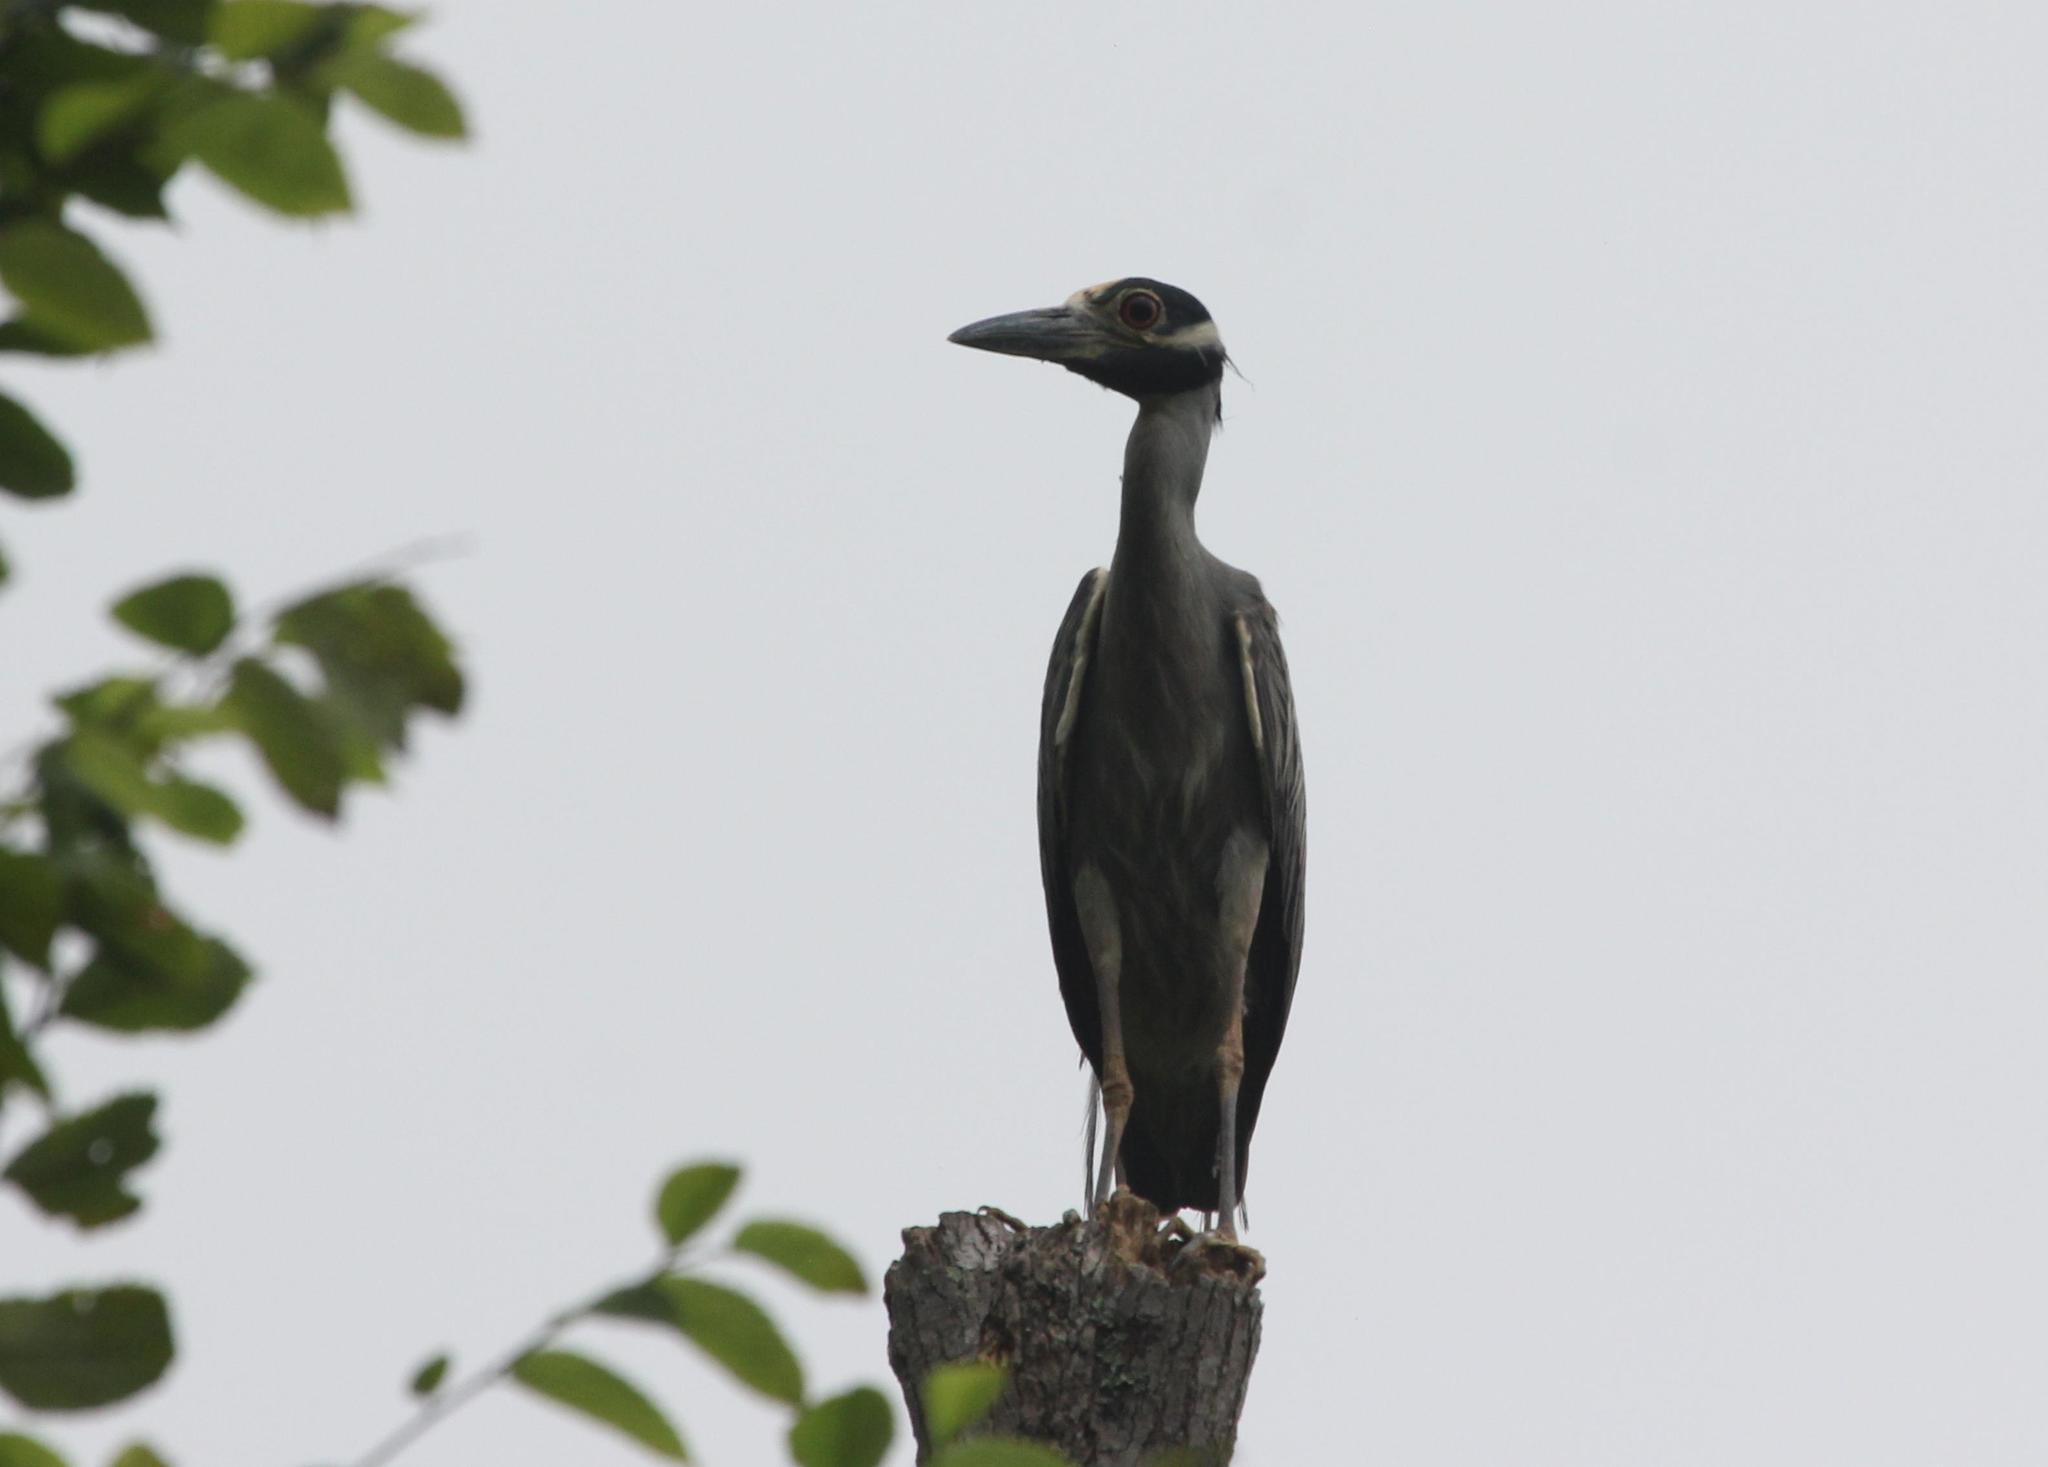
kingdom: Animalia
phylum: Chordata
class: Aves
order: Pelecaniformes
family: Ardeidae
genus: Nyctanassa
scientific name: Nyctanassa violacea
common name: Yellow-crowned night heron
